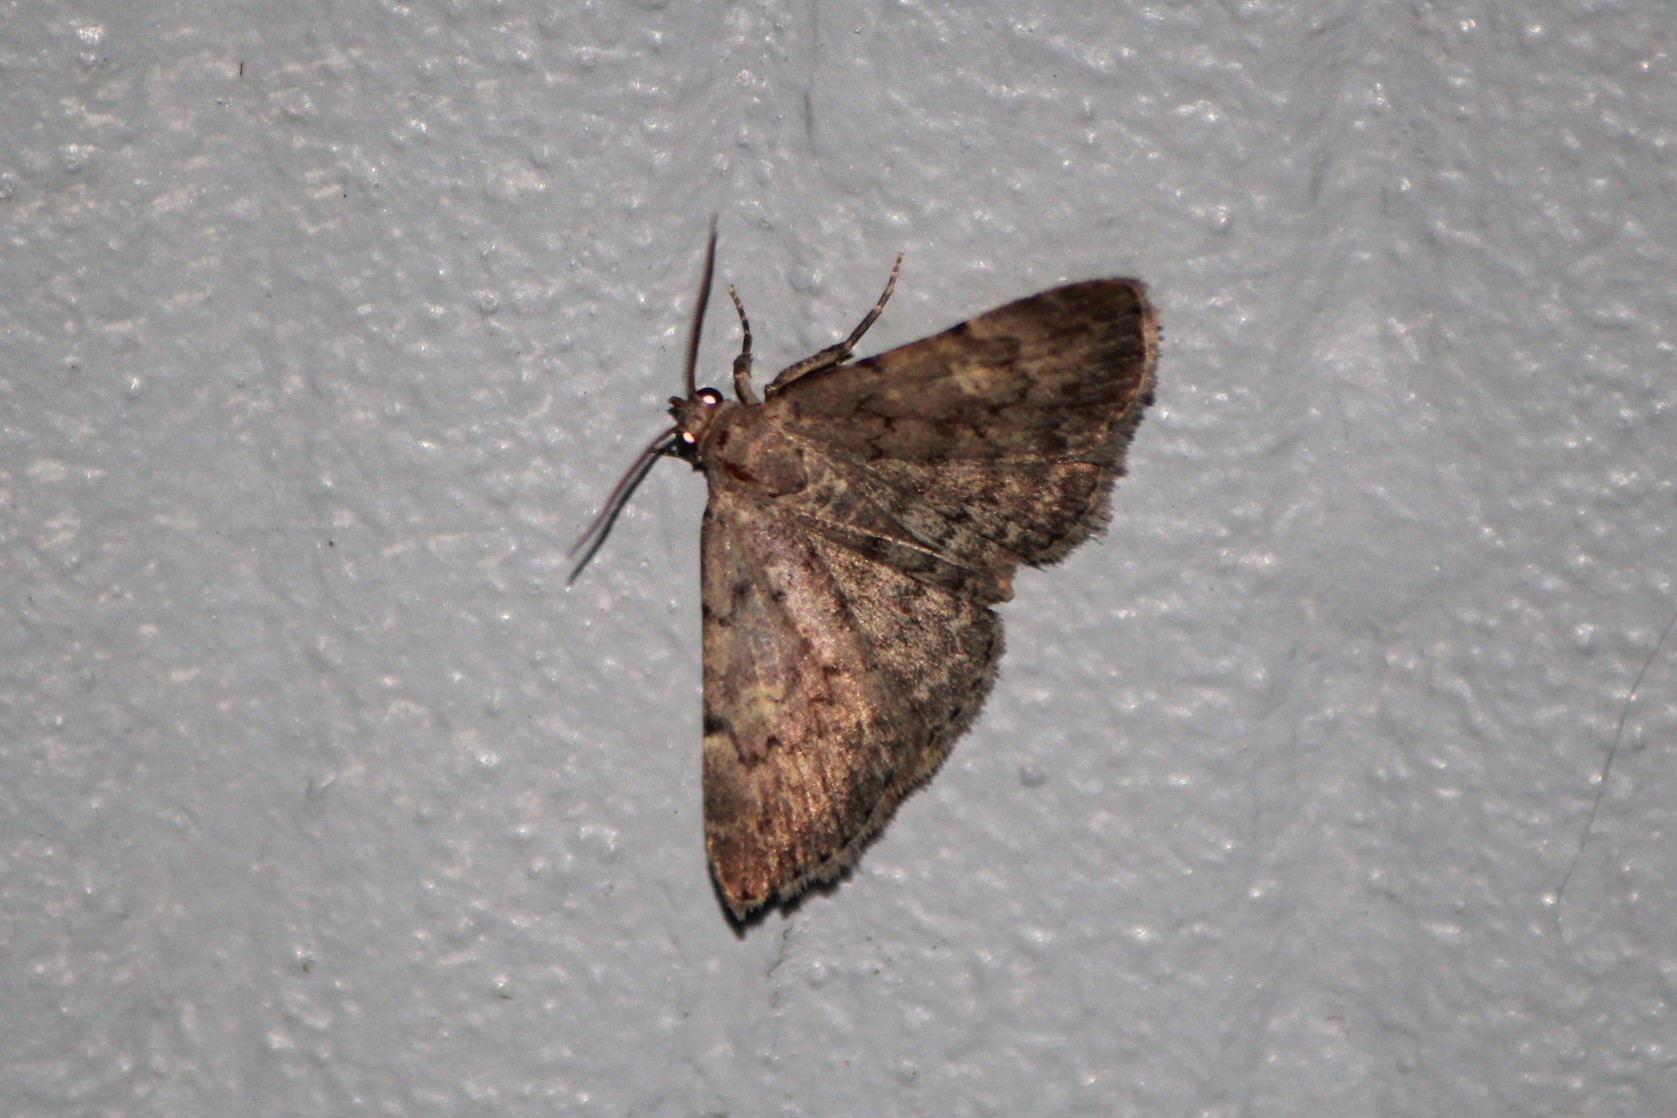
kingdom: Animalia
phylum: Arthropoda
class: Insecta
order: Lepidoptera
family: Erebidae
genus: Idia
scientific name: Idia aemula
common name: Common idia moth
